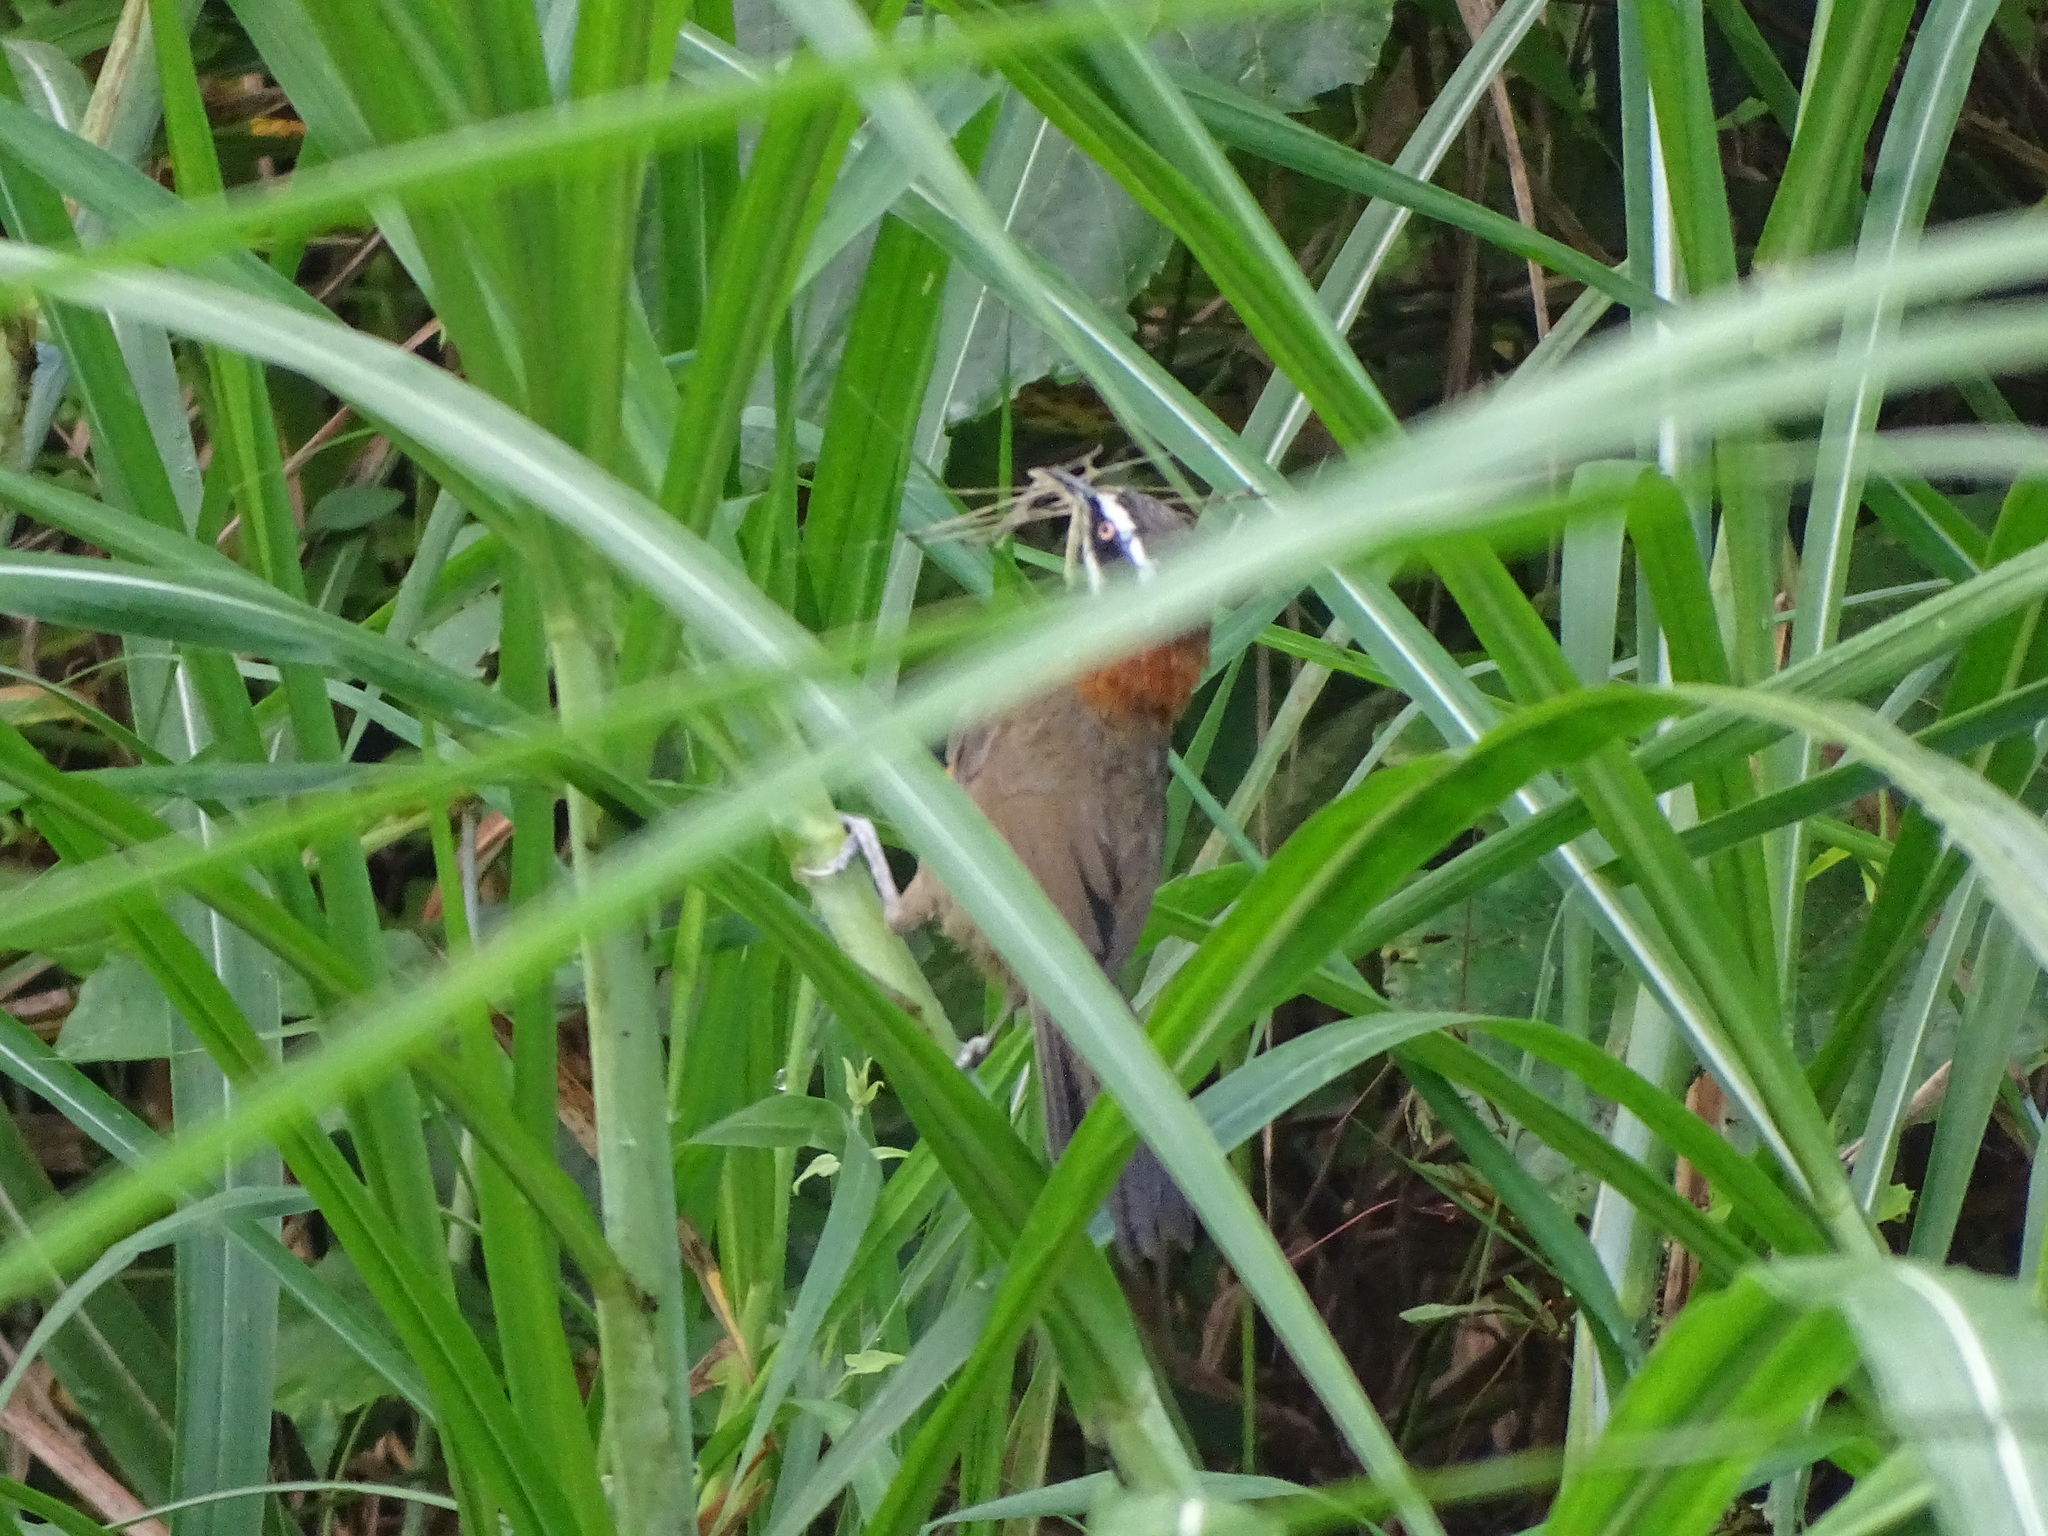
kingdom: Animalia
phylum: Chordata
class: Aves
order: Passeriformes
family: Timaliidae
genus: Pomatorhinus
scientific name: Pomatorhinus musicus
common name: Taiwan scimitar-babbler
